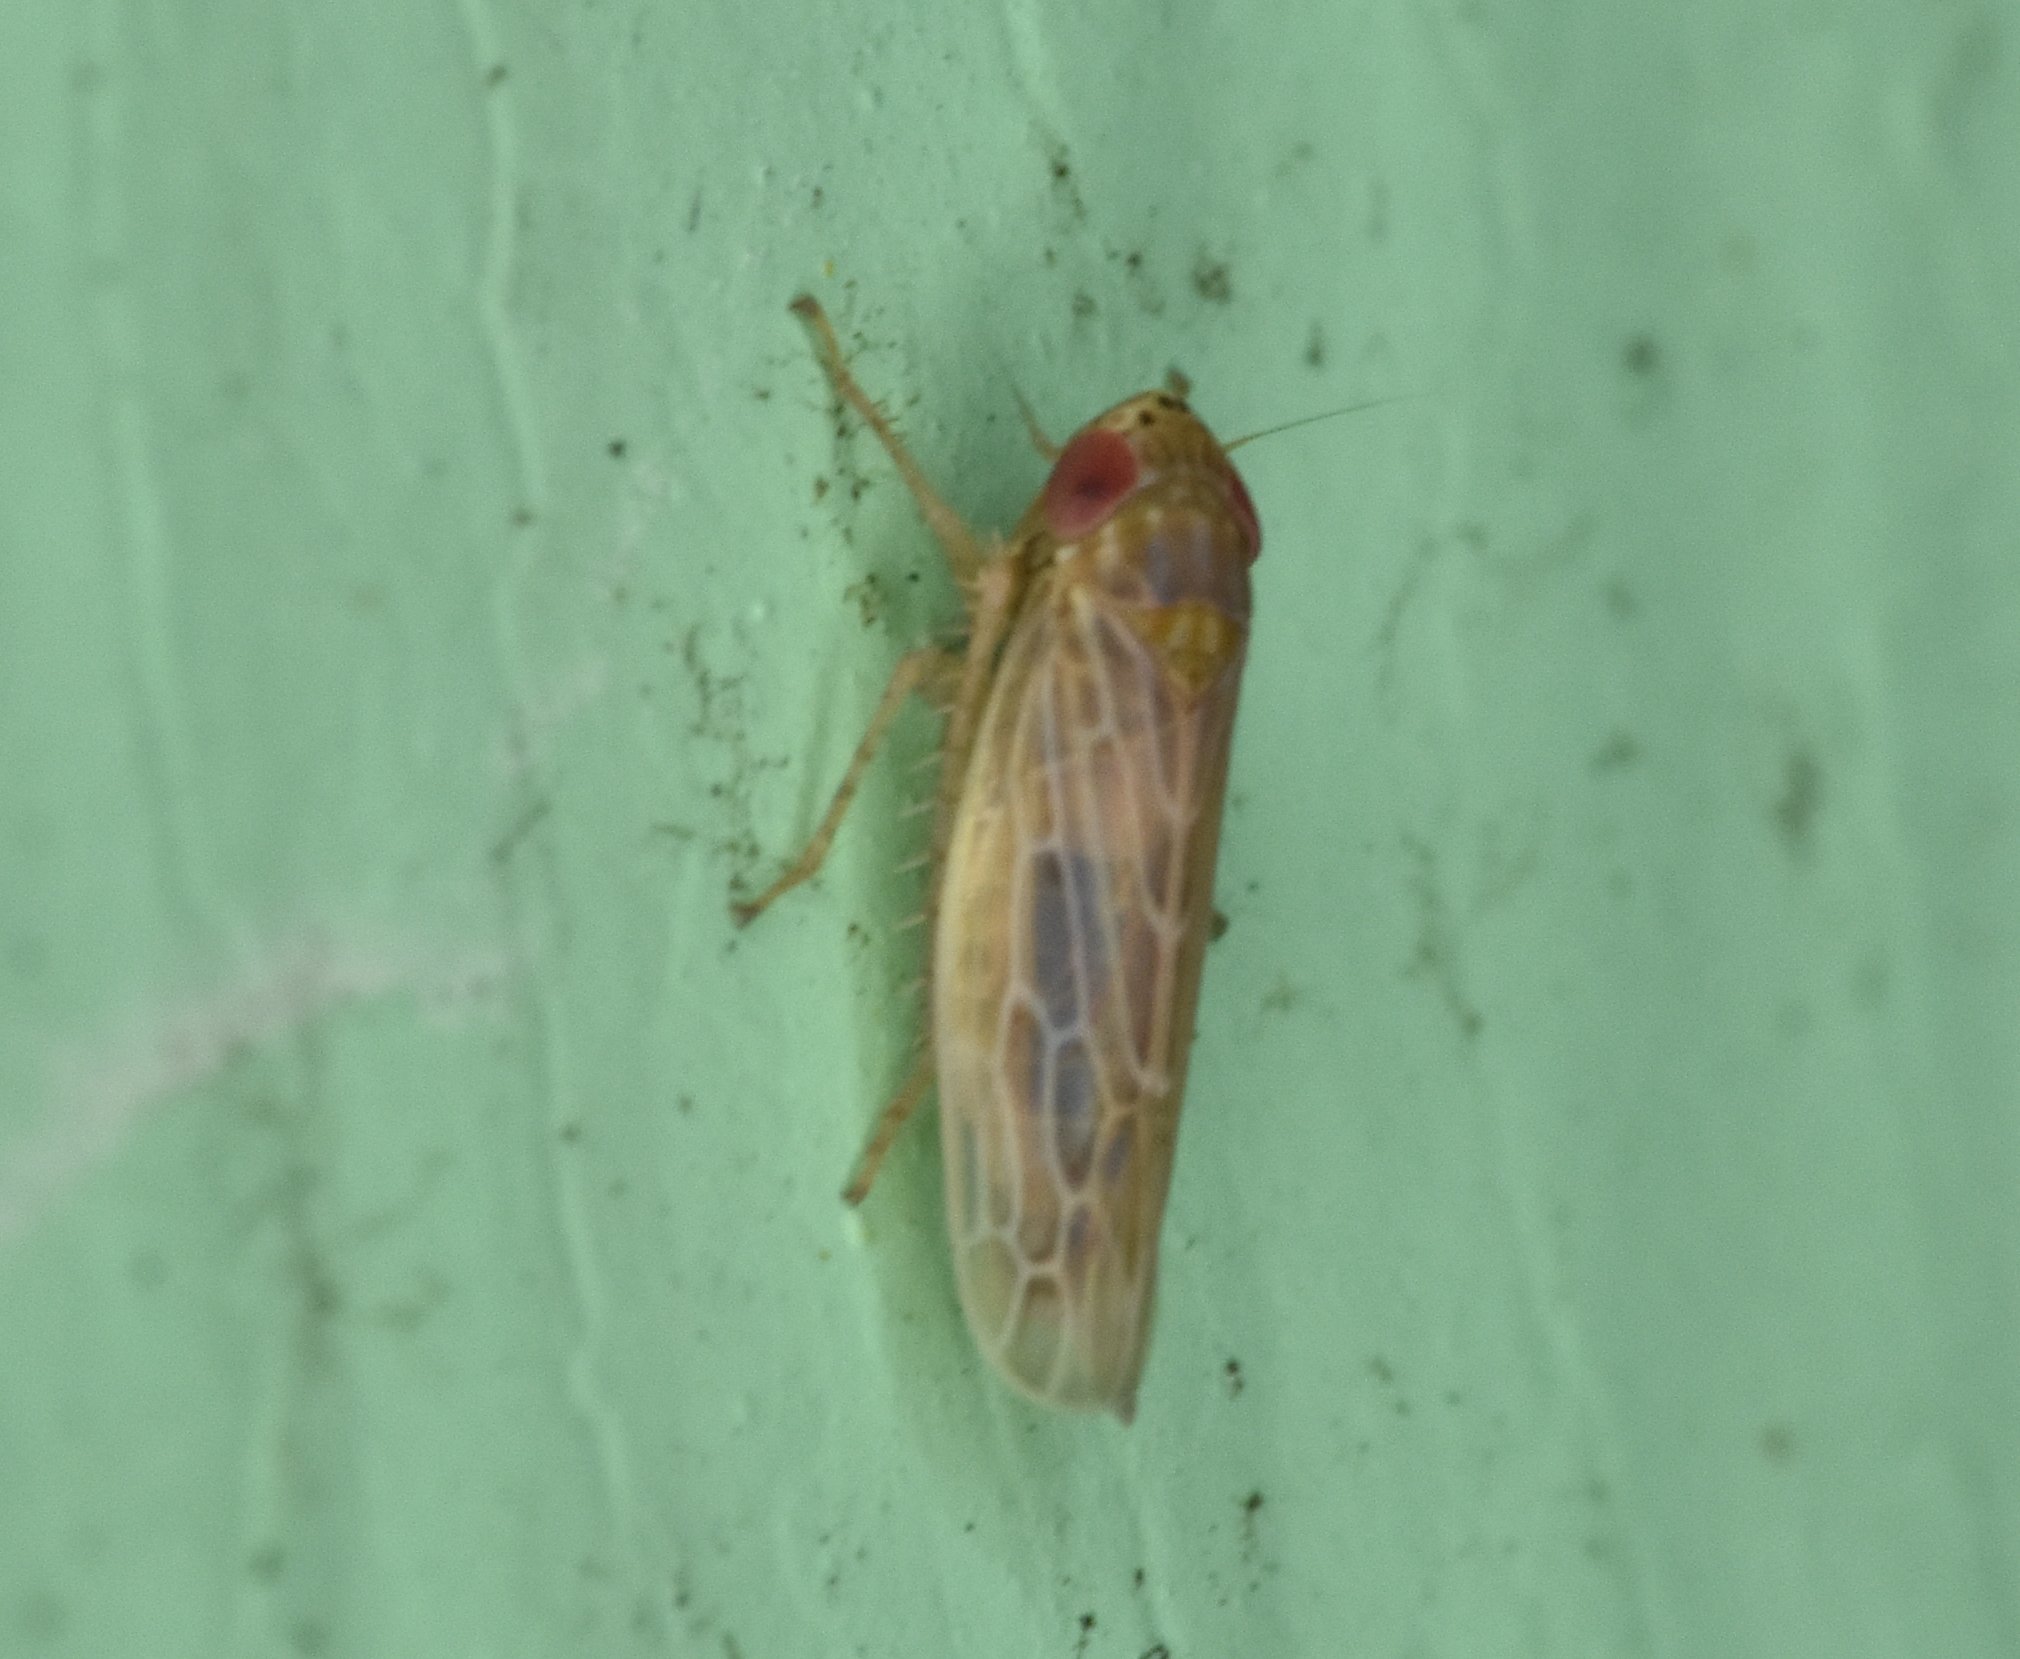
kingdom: Animalia
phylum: Arthropoda
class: Insecta
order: Hemiptera
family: Cicadellidae
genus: Graminella
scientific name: Graminella sonora
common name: Lesser lawn leafhopper
